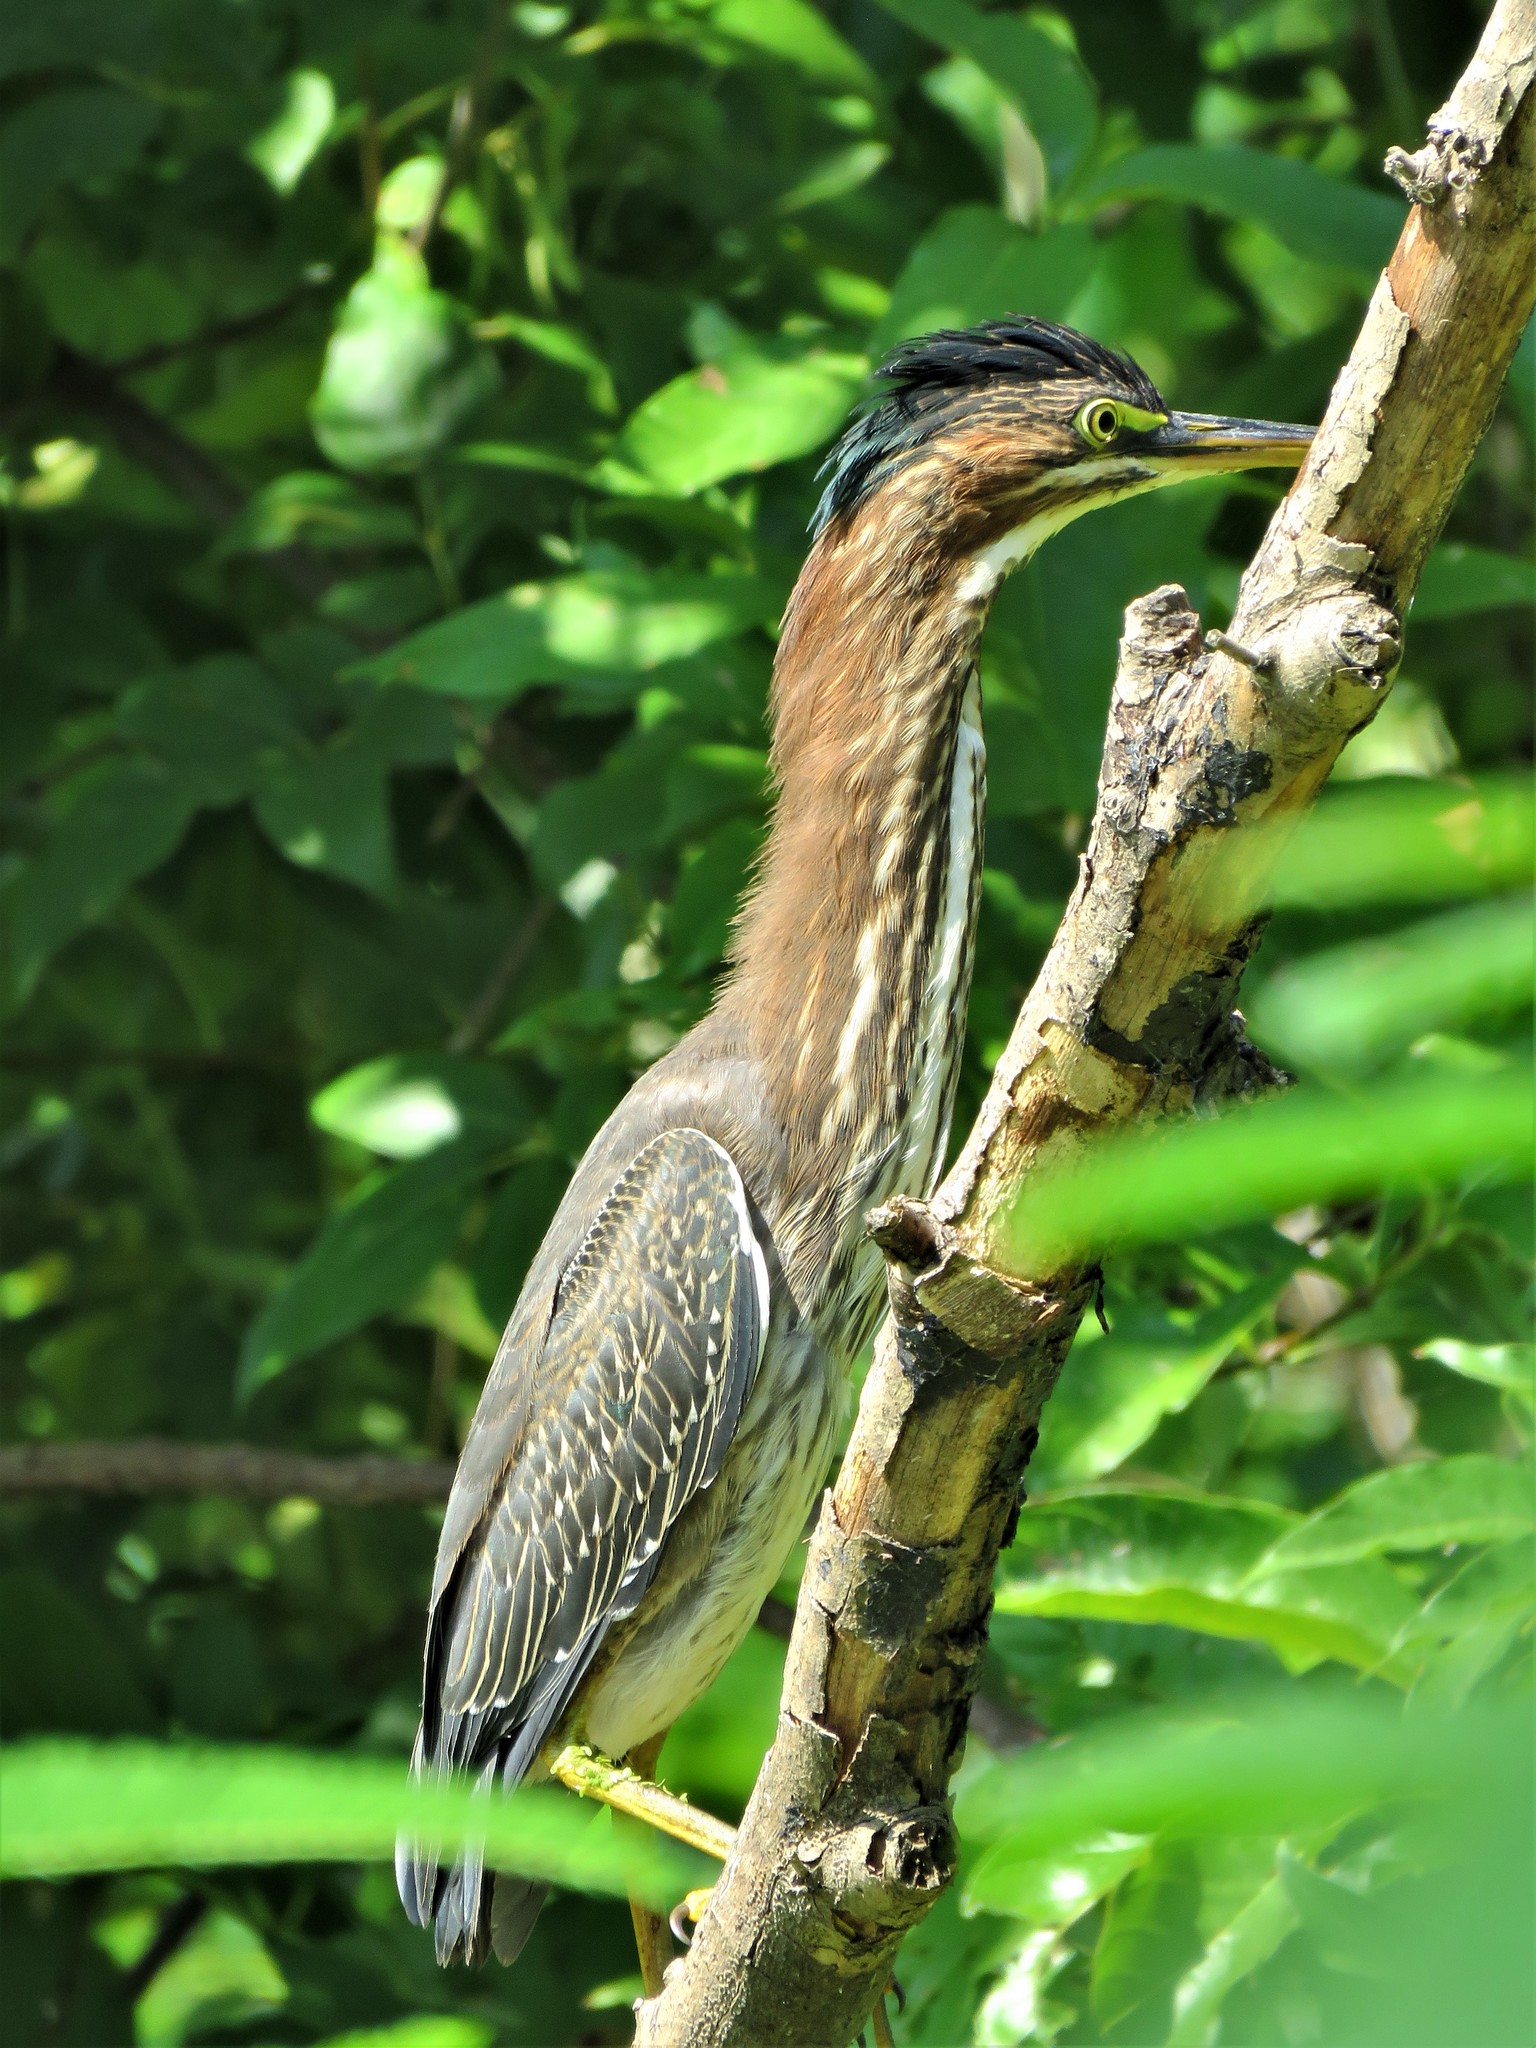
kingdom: Animalia
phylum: Chordata
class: Aves
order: Pelecaniformes
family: Ardeidae
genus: Butorides
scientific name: Butorides virescens
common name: Green heron
